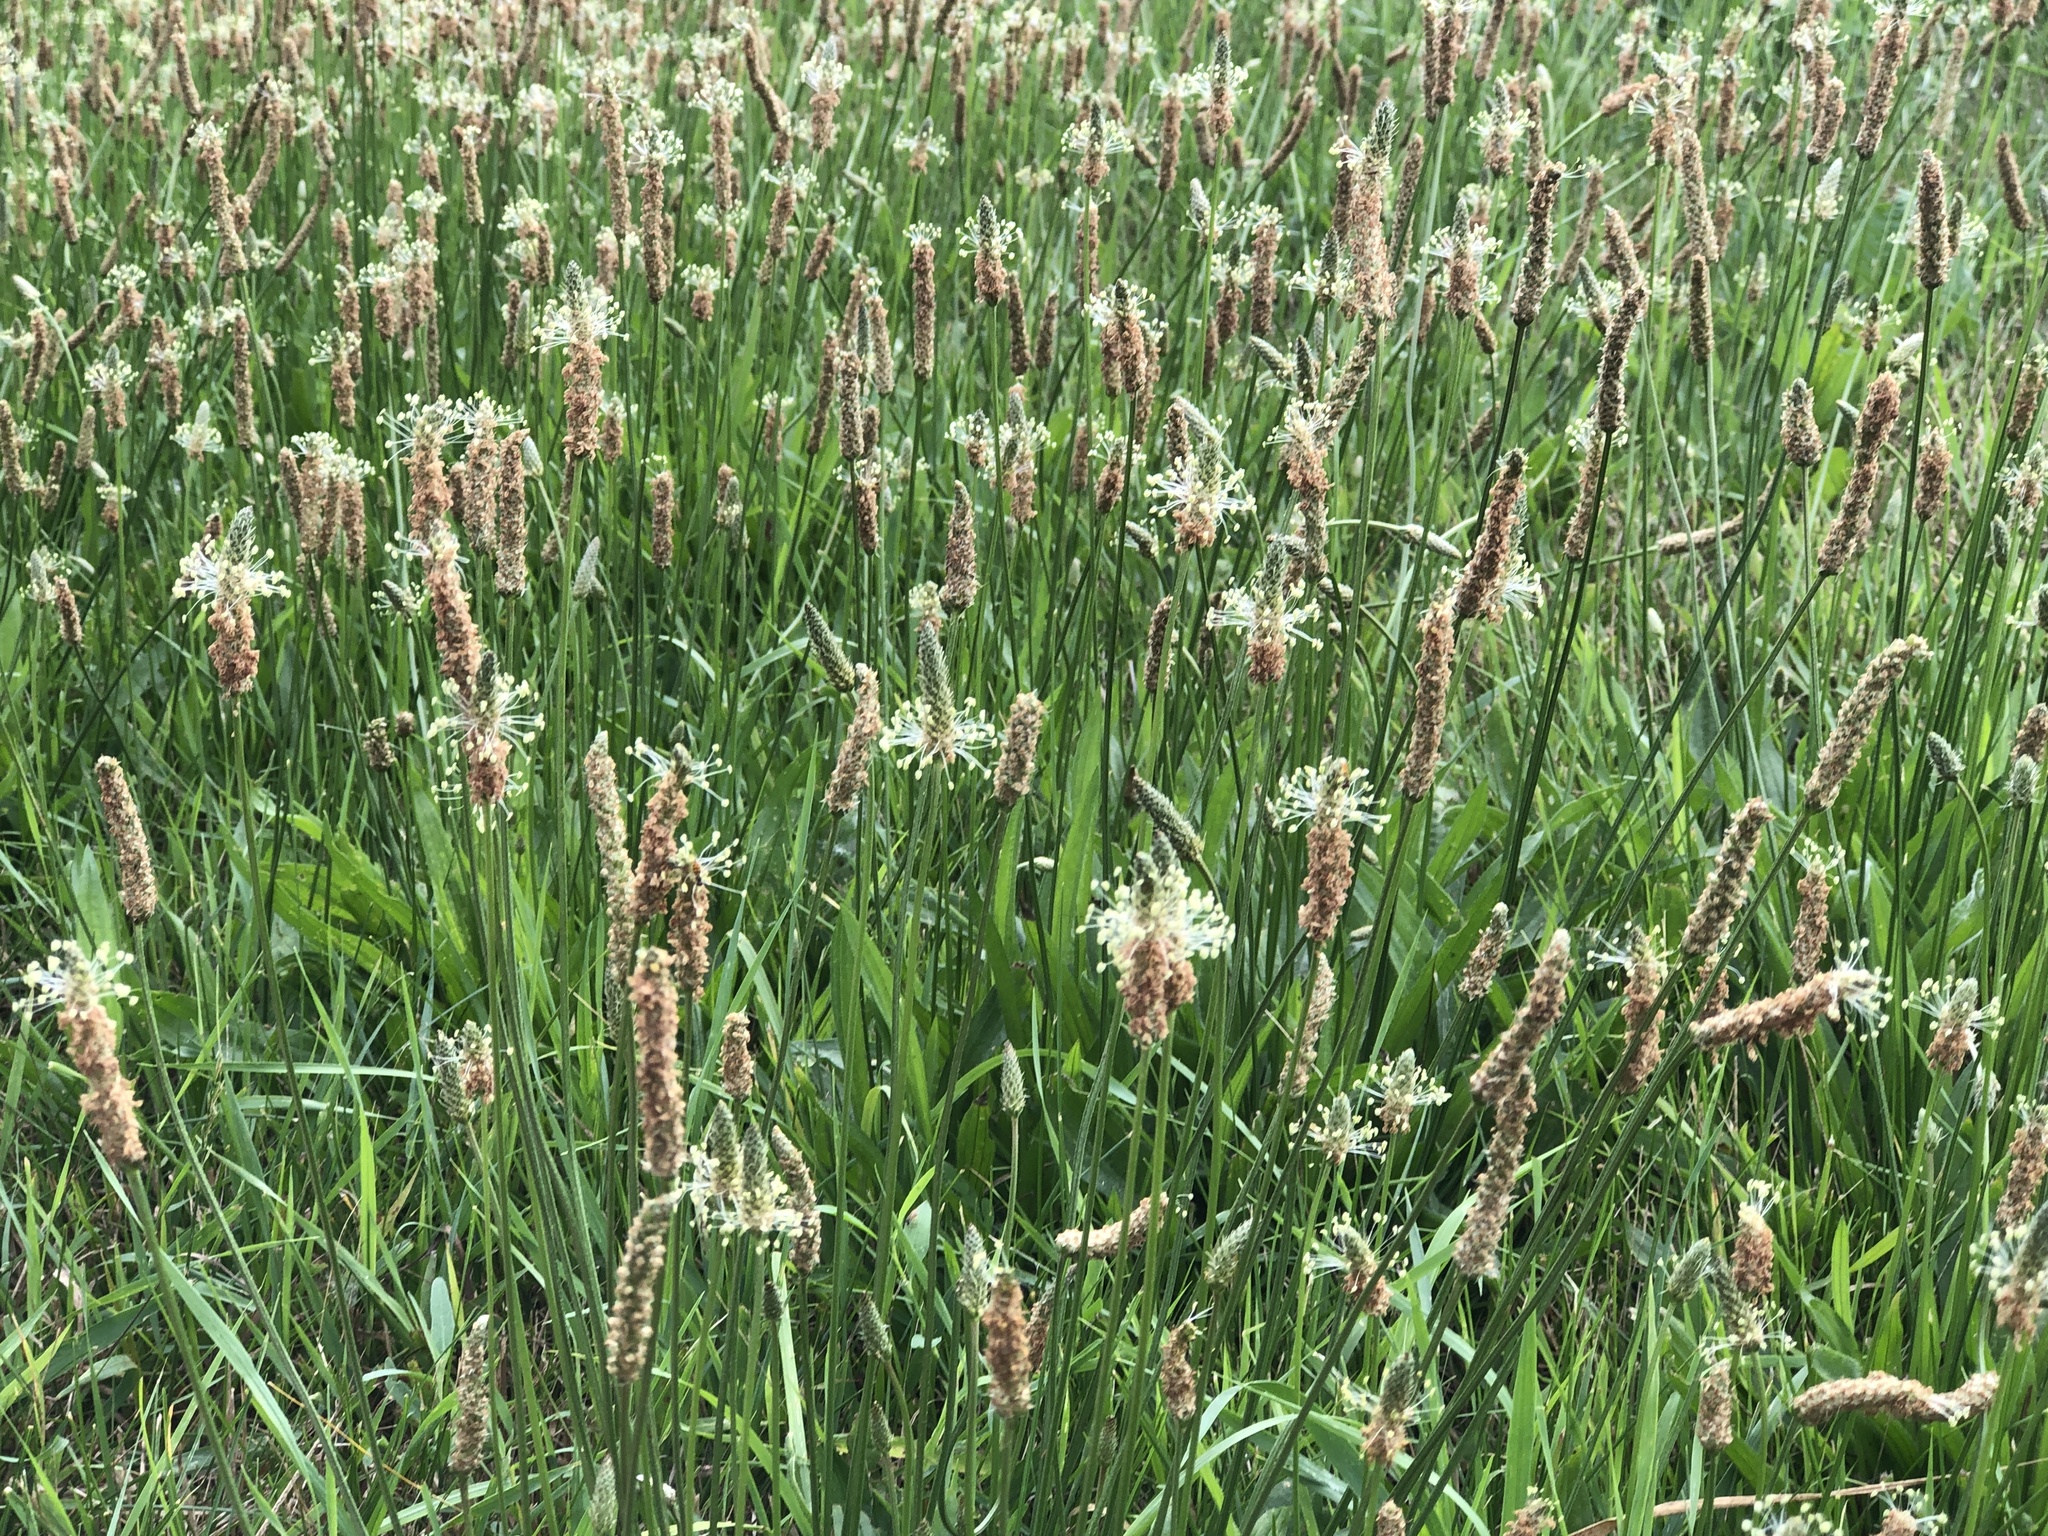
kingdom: Plantae
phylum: Tracheophyta
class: Magnoliopsida
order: Lamiales
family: Plantaginaceae
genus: Plantago
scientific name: Plantago lanceolata
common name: Ribwort plantain
